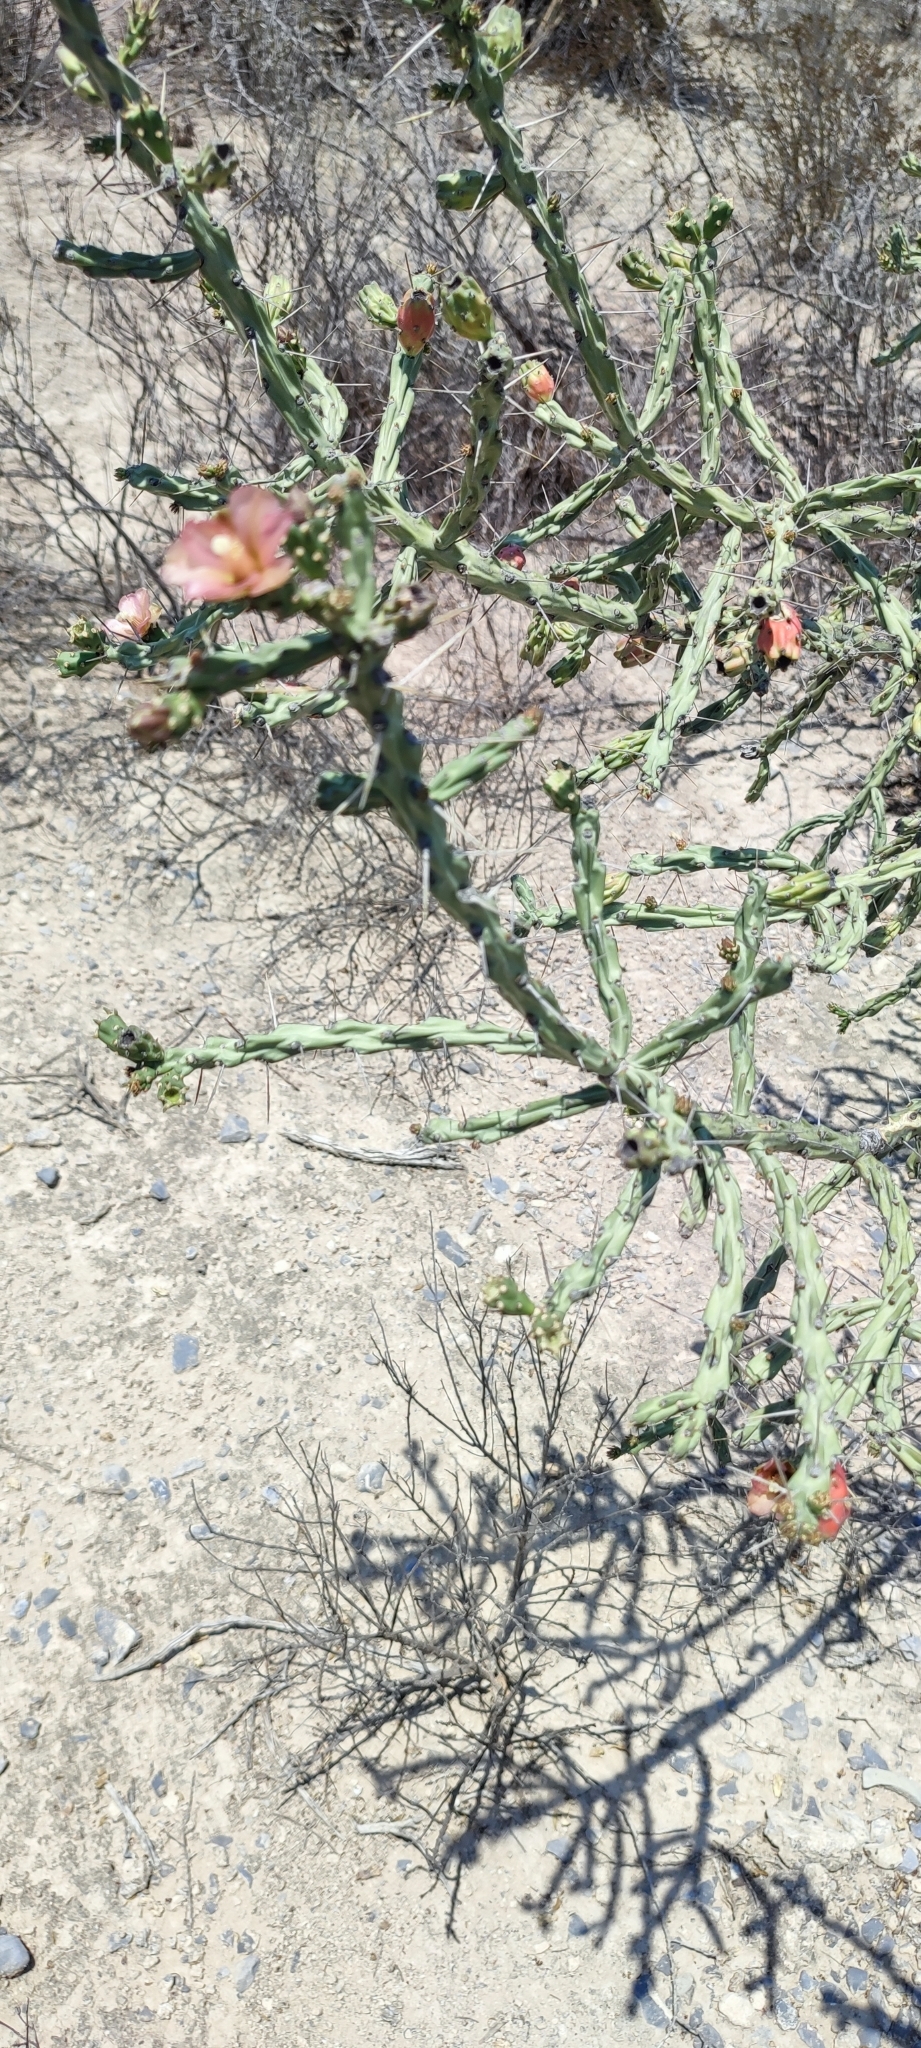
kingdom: Plantae
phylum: Tracheophyta
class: Magnoliopsida
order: Caryophyllales
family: Cactaceae
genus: Cylindropuntia
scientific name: Cylindropuntia kleiniae
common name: Klein's cholla
